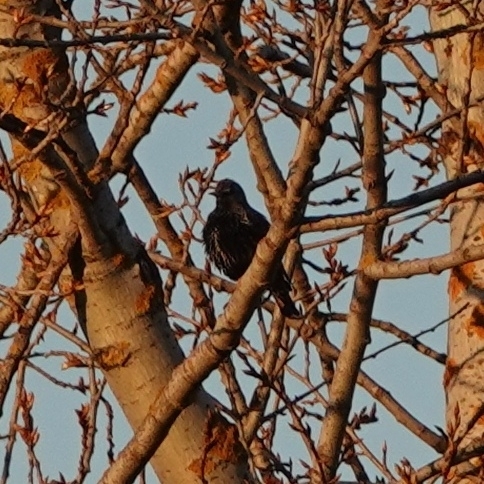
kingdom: Animalia
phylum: Chordata
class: Aves
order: Passeriformes
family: Sturnidae
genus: Sturnus
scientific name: Sturnus vulgaris
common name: Common starling
